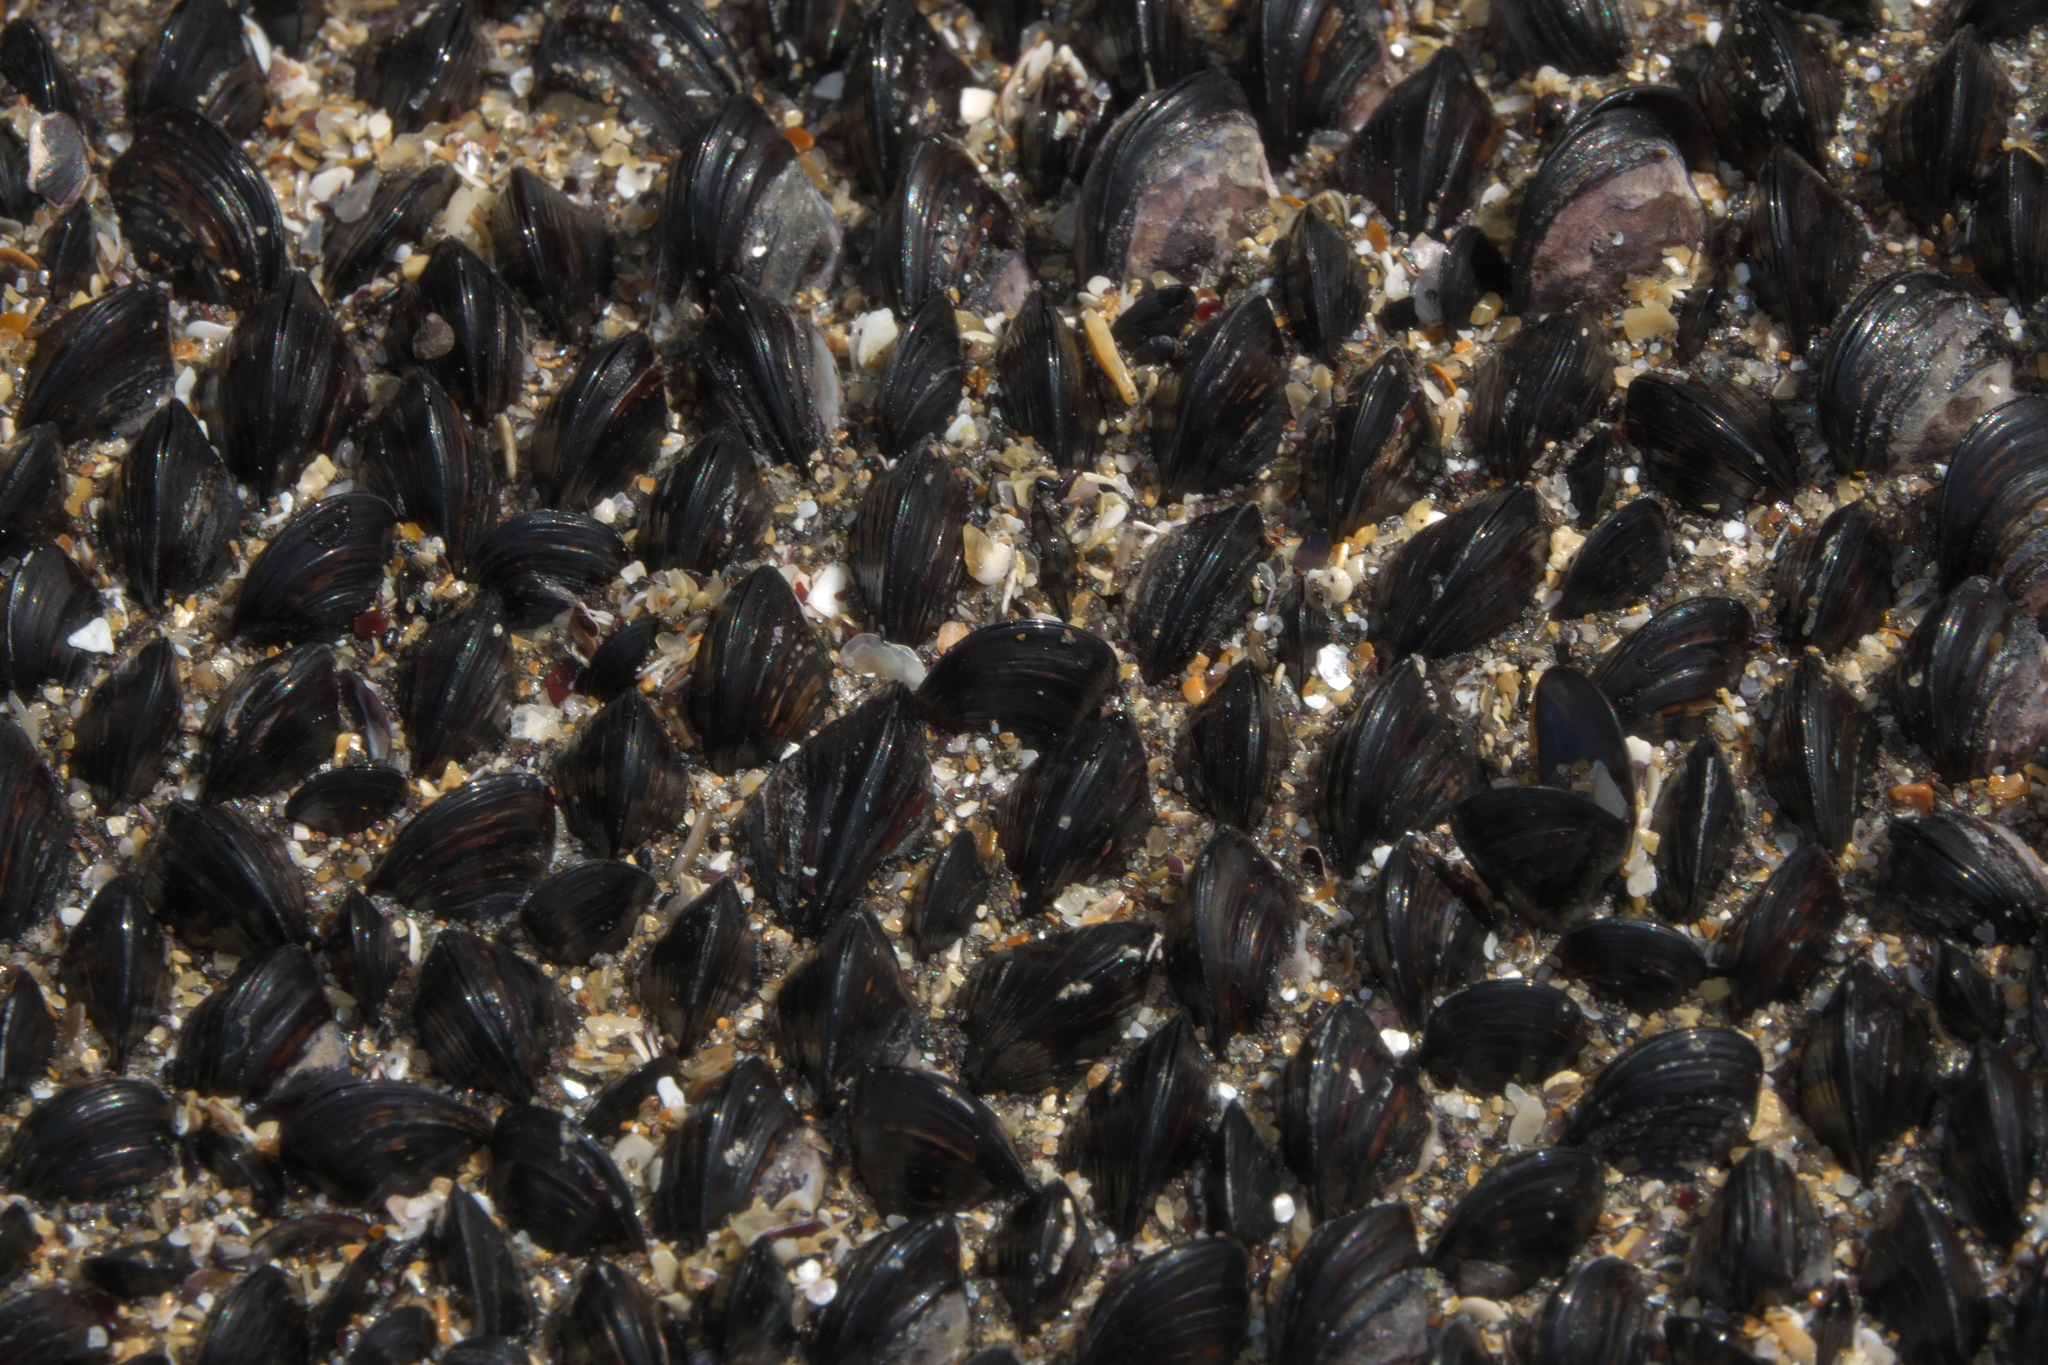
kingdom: Animalia
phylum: Mollusca
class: Bivalvia
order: Mytilida
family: Mytilidae
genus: Xenostrobus
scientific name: Xenostrobus neozelanicus
